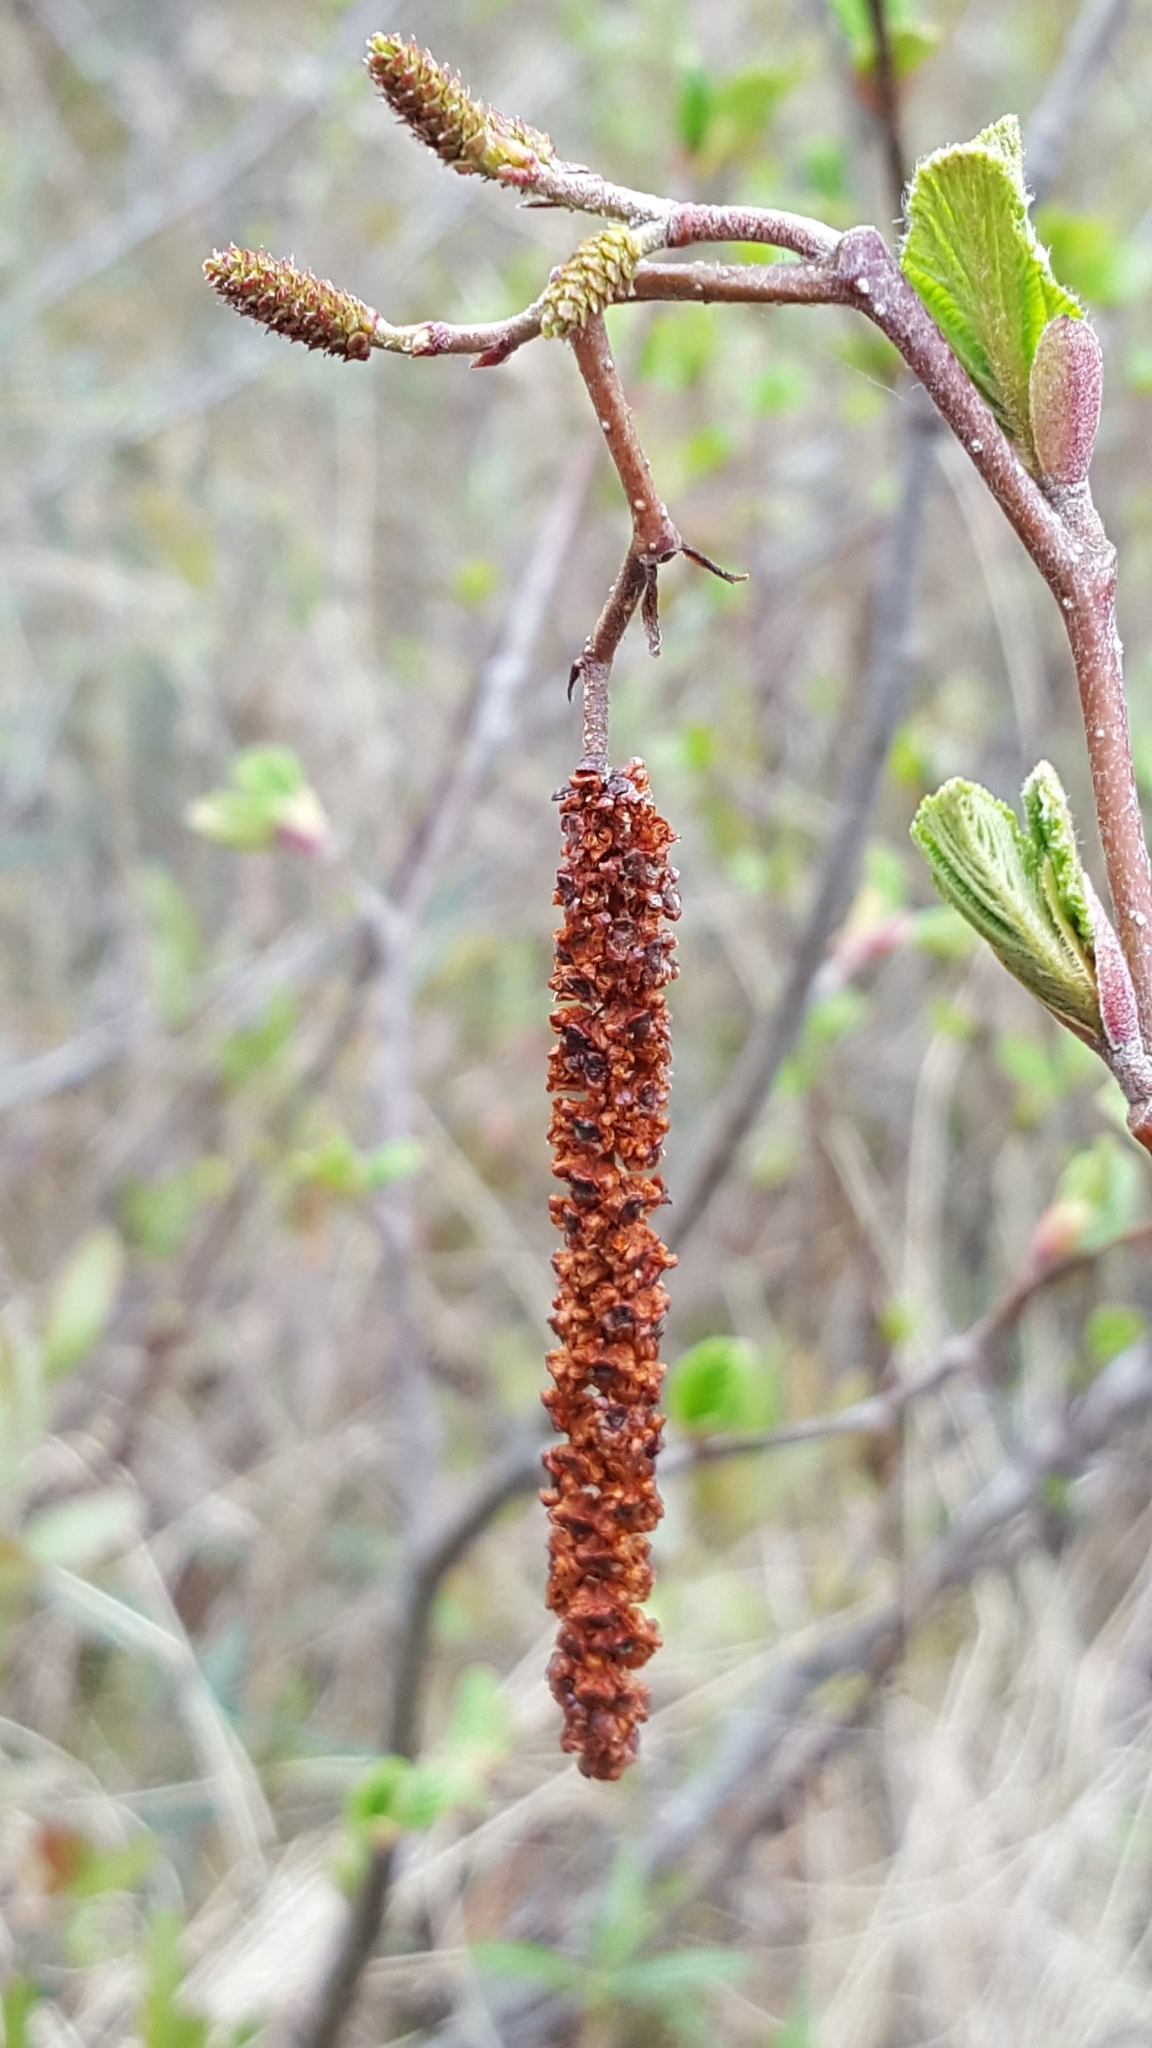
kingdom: Plantae
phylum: Tracheophyta
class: Magnoliopsida
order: Fagales
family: Betulaceae
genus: Alnus
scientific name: Alnus incana
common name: Grey alder
